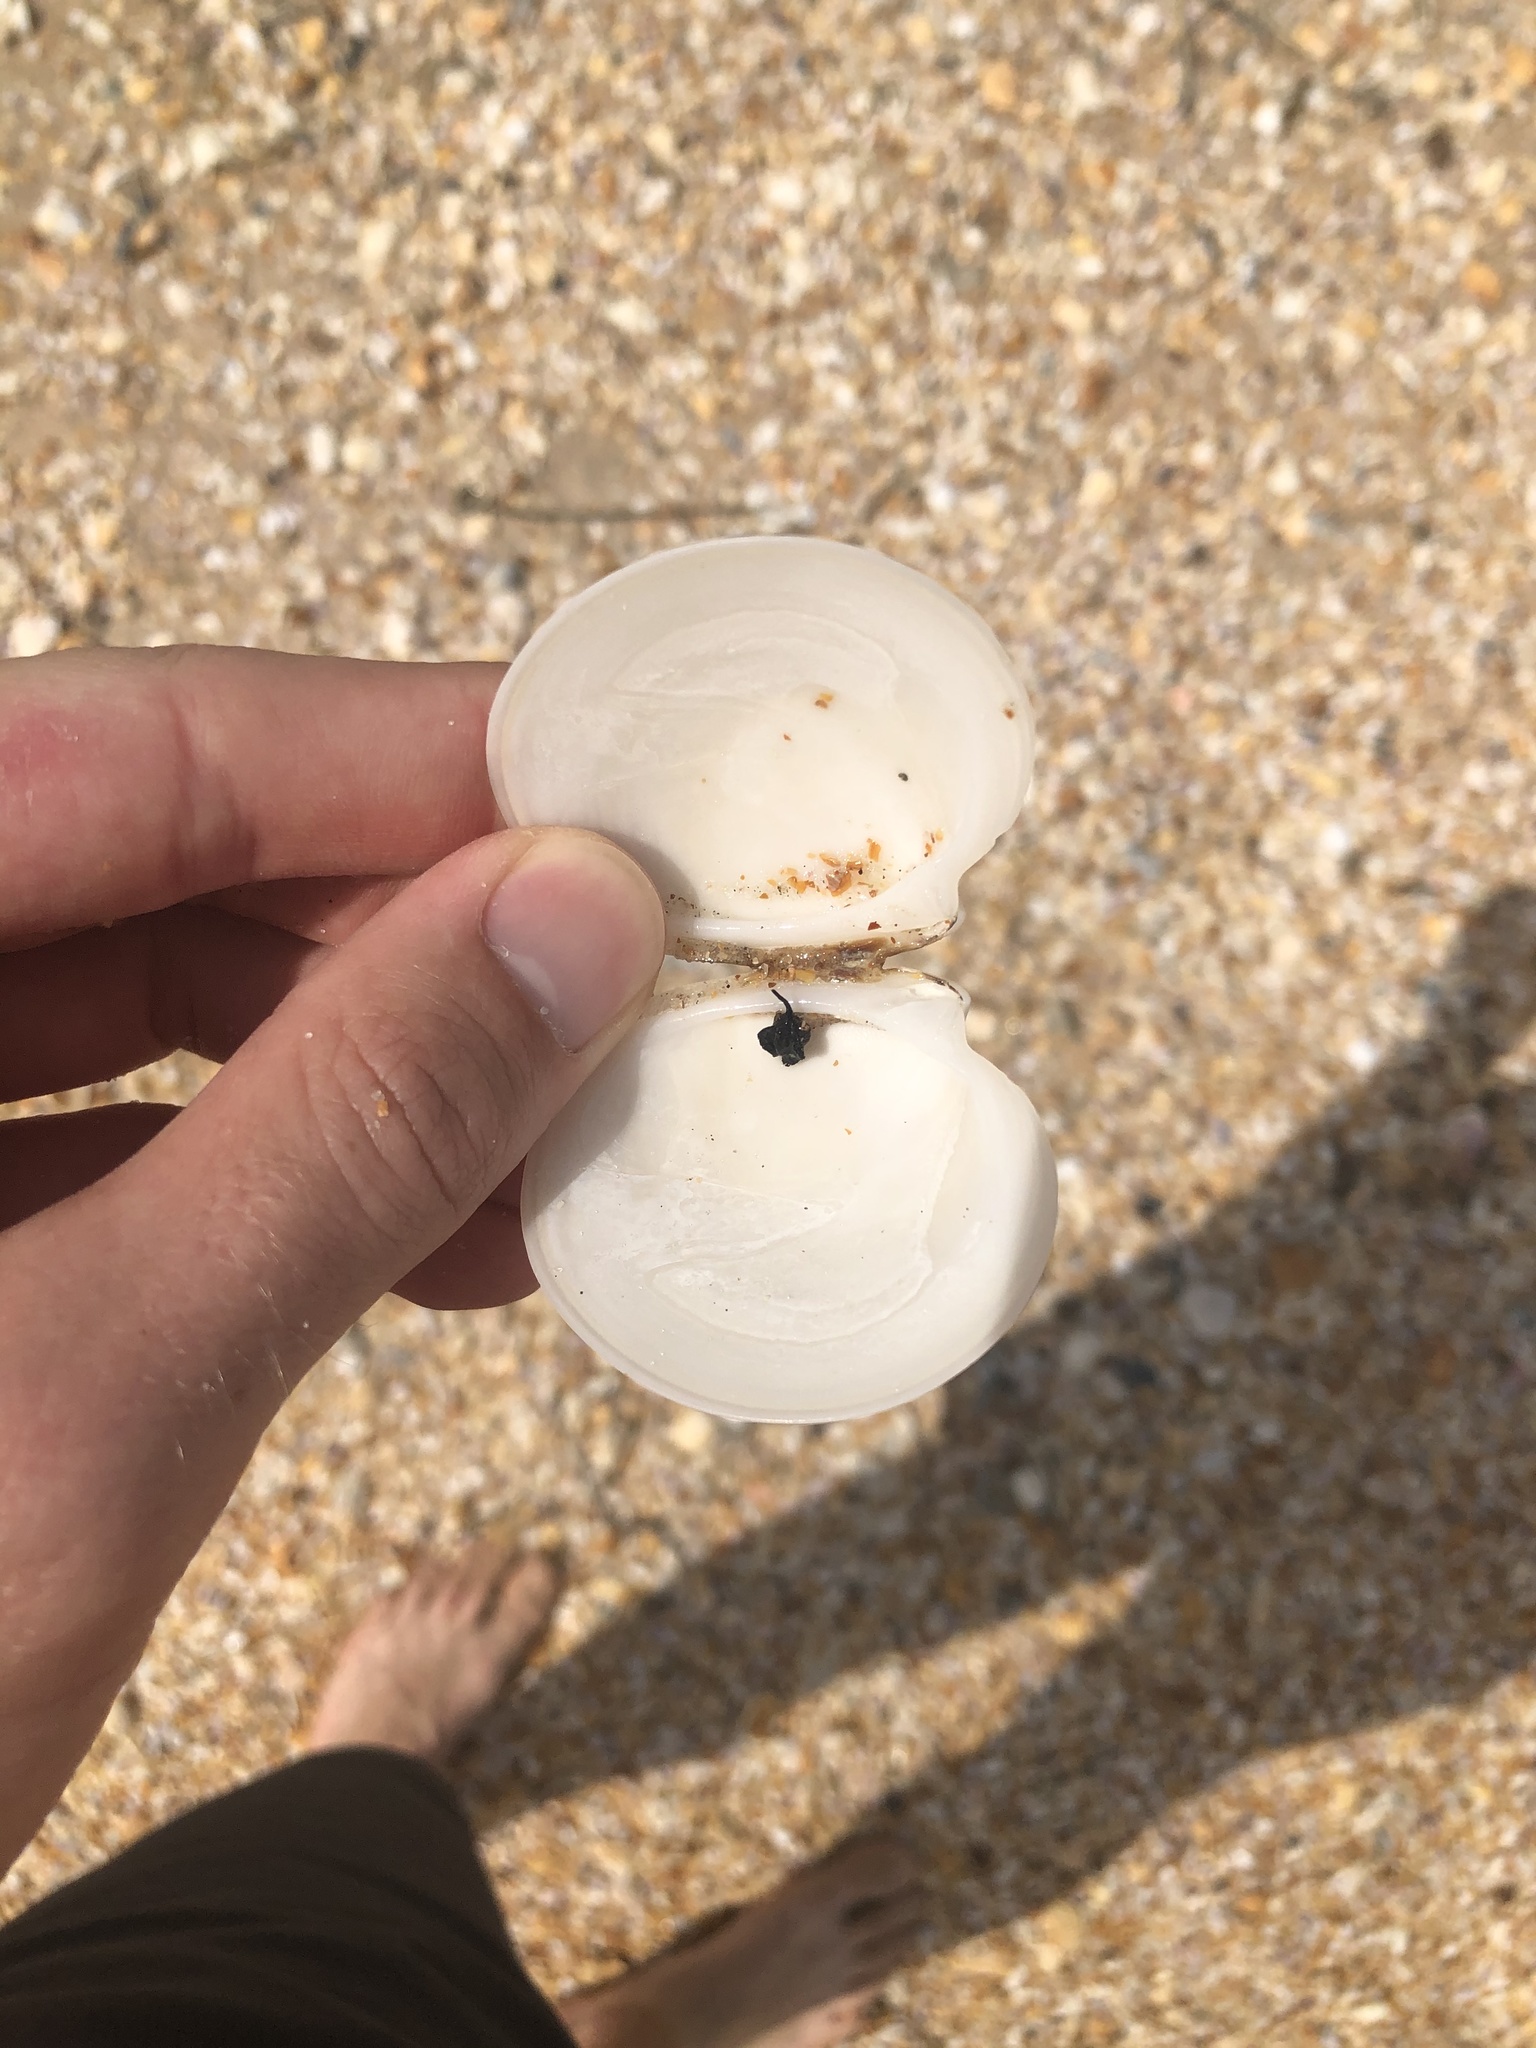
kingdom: Animalia
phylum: Mollusca
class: Bivalvia
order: Venerida
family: Veneridae
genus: Dosinia
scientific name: Dosinia discus
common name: Disk dosinia
